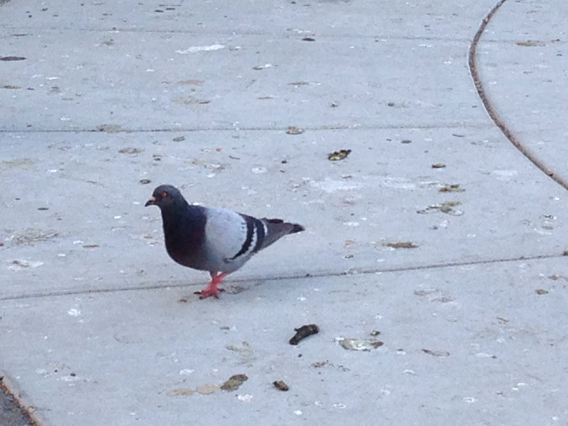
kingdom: Animalia
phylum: Chordata
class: Aves
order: Columbiformes
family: Columbidae
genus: Columba
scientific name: Columba livia
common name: Rock pigeon
